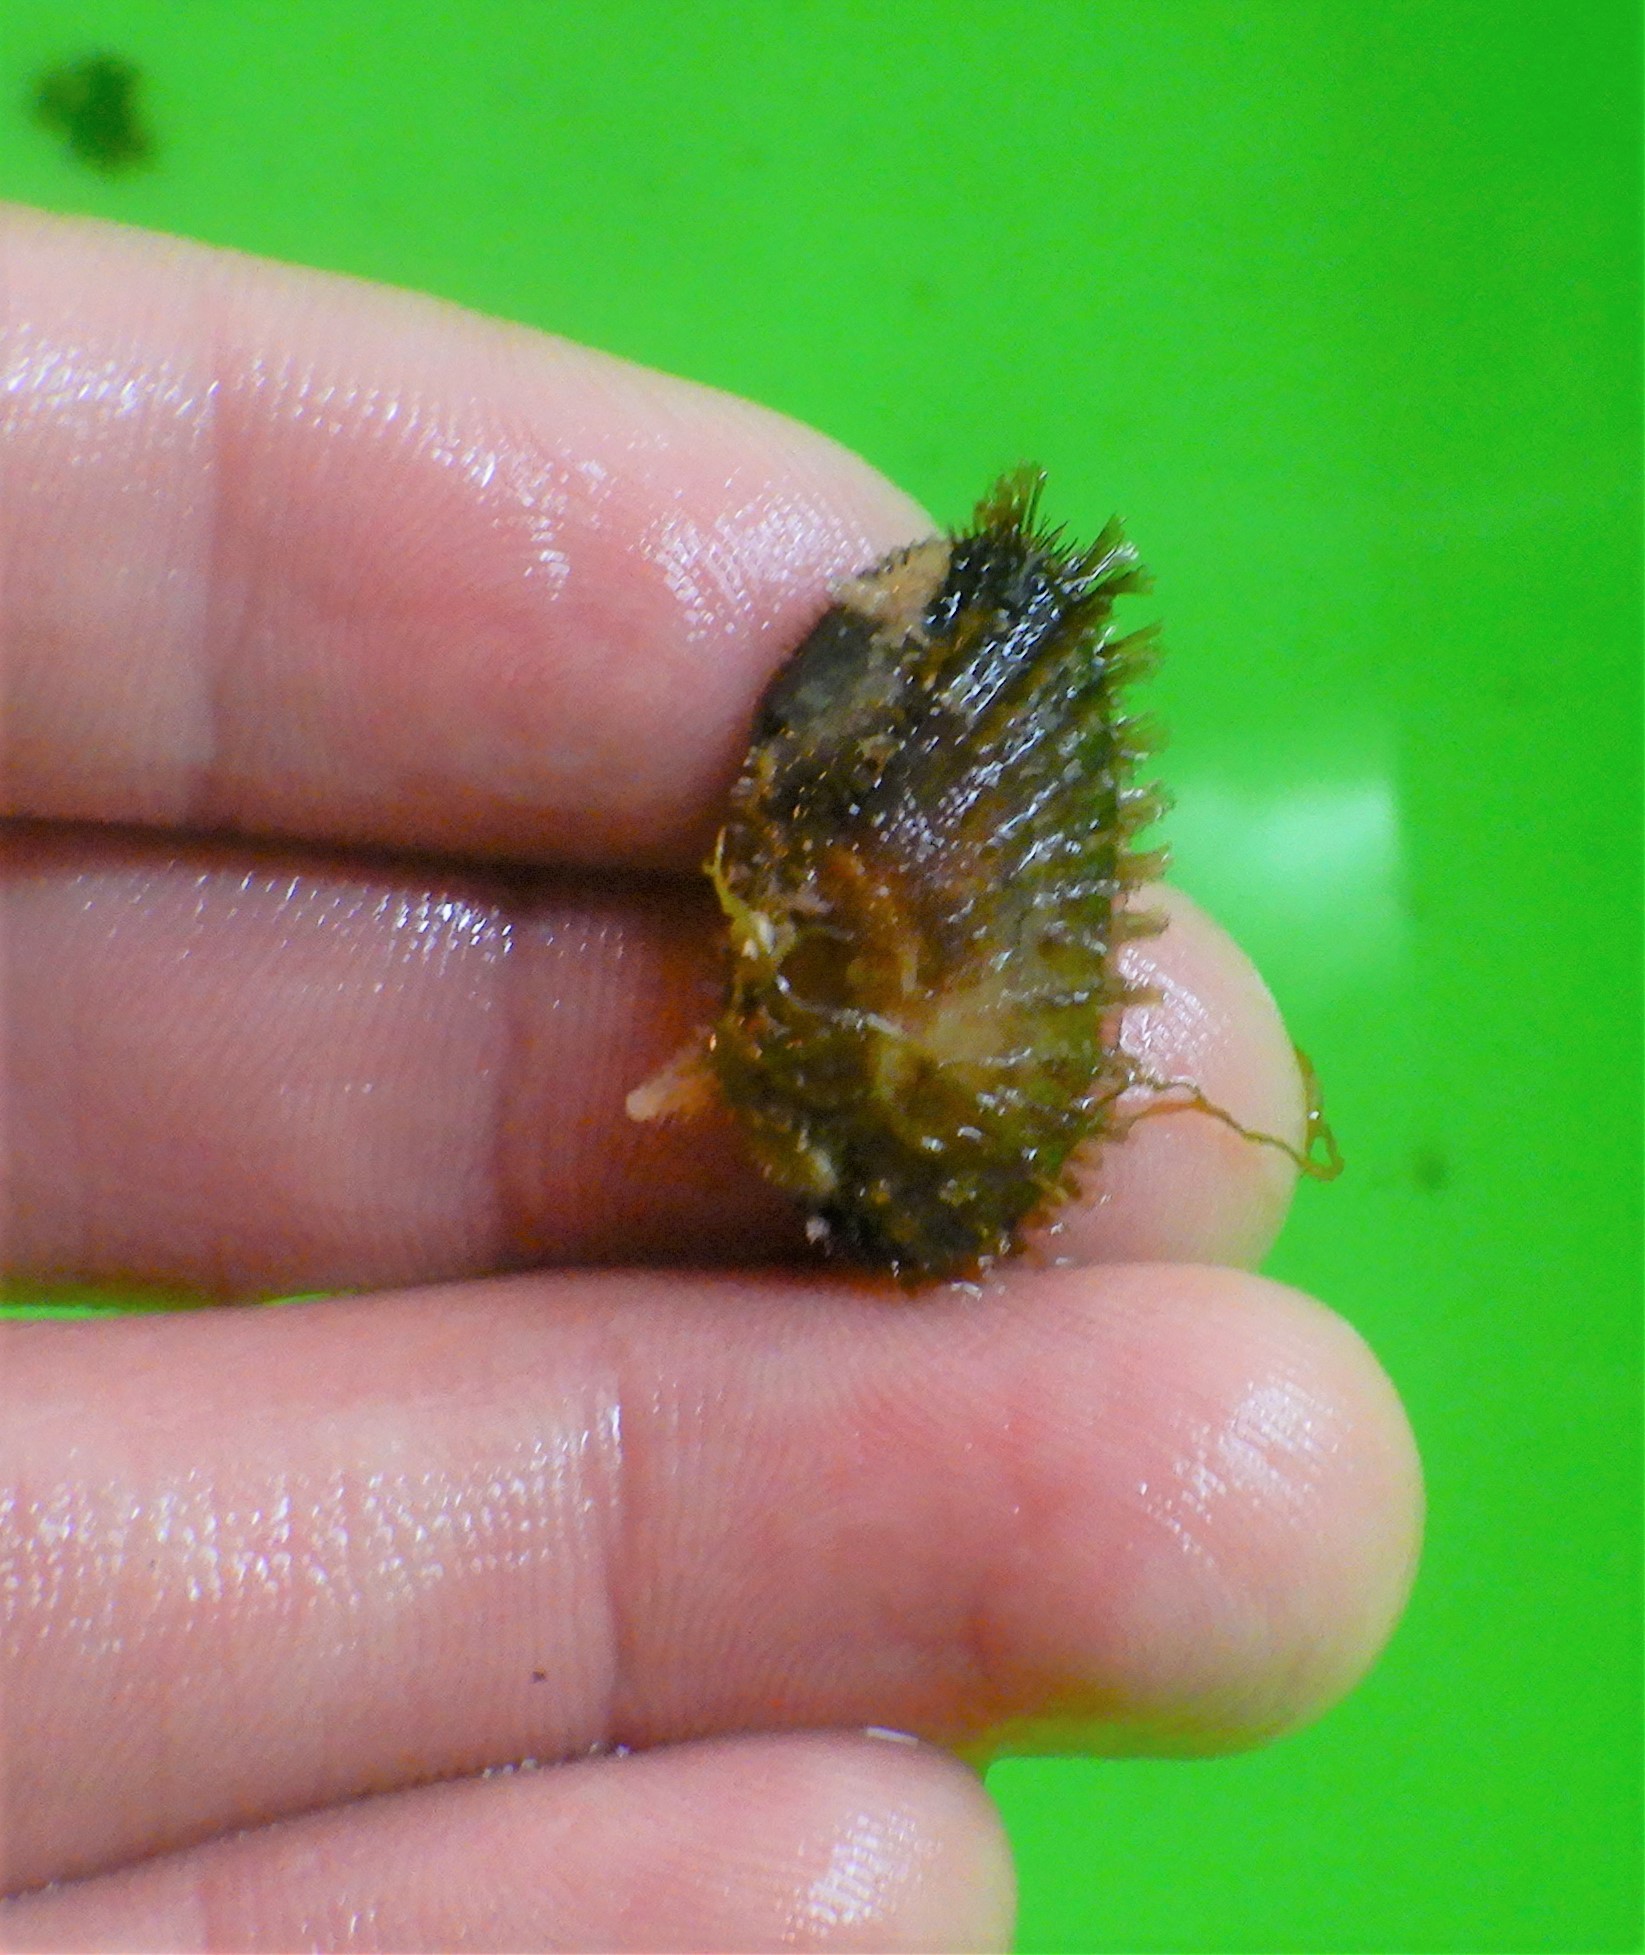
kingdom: Animalia
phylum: Mollusca
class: Bivalvia
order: Arcida
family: Arcidae
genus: Barbatia
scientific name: Barbatia barbata
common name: Bearded ark
